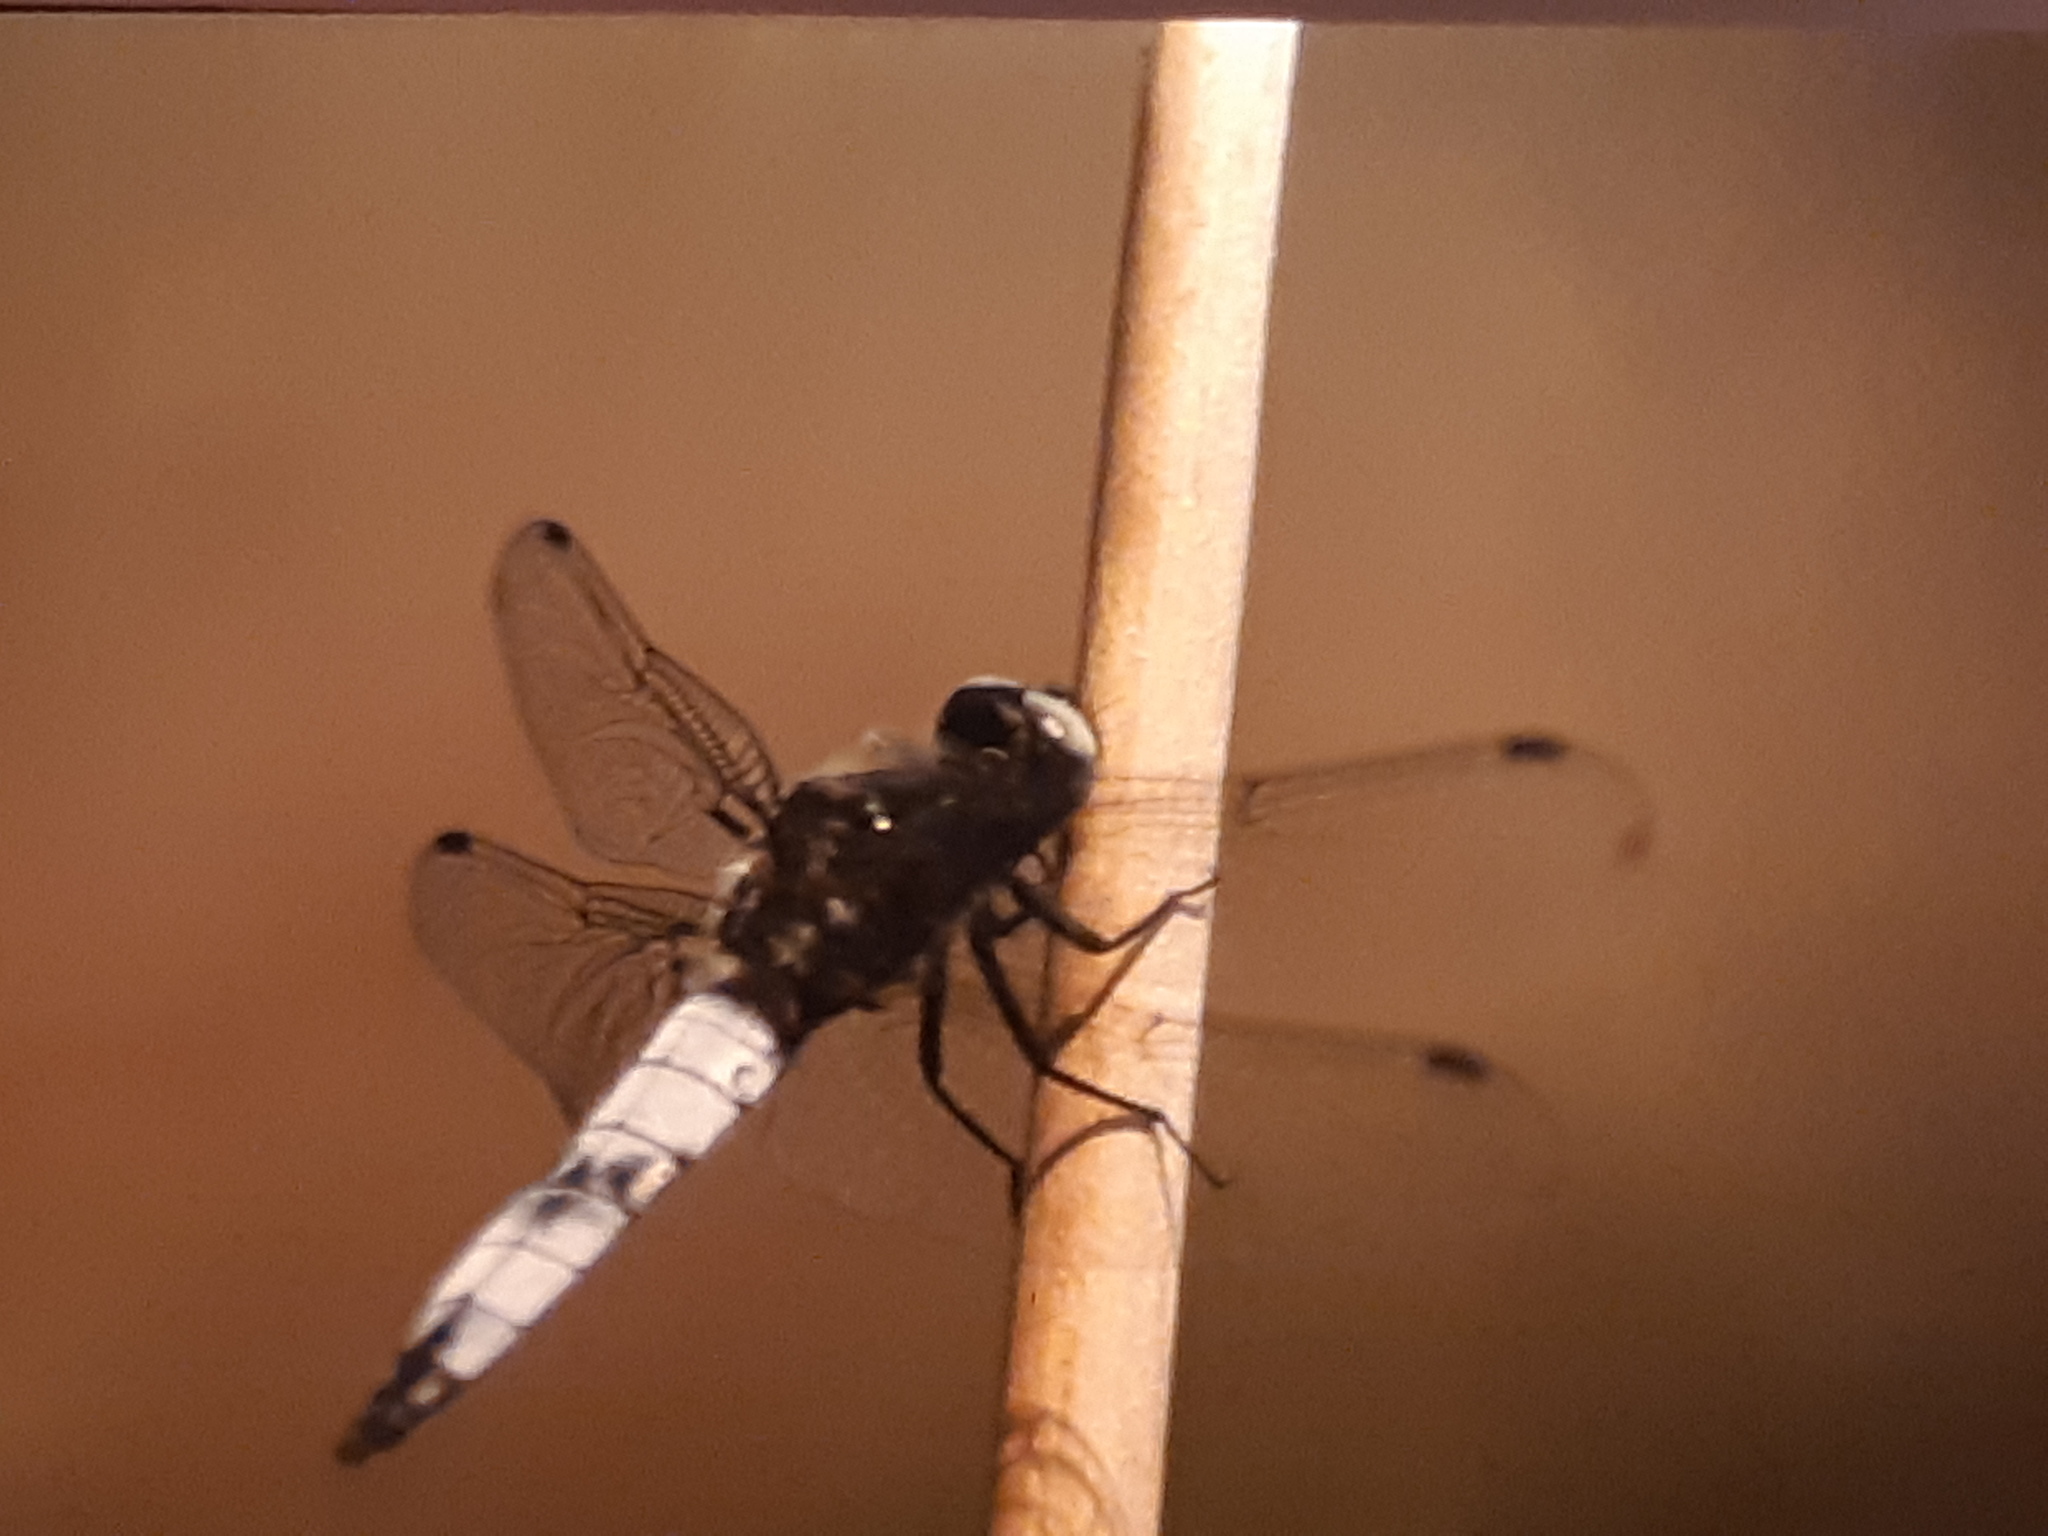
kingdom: Animalia
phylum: Arthropoda
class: Insecta
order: Odonata
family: Libellulidae
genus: Libellula
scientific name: Libellula fulva
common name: Blue chaser
